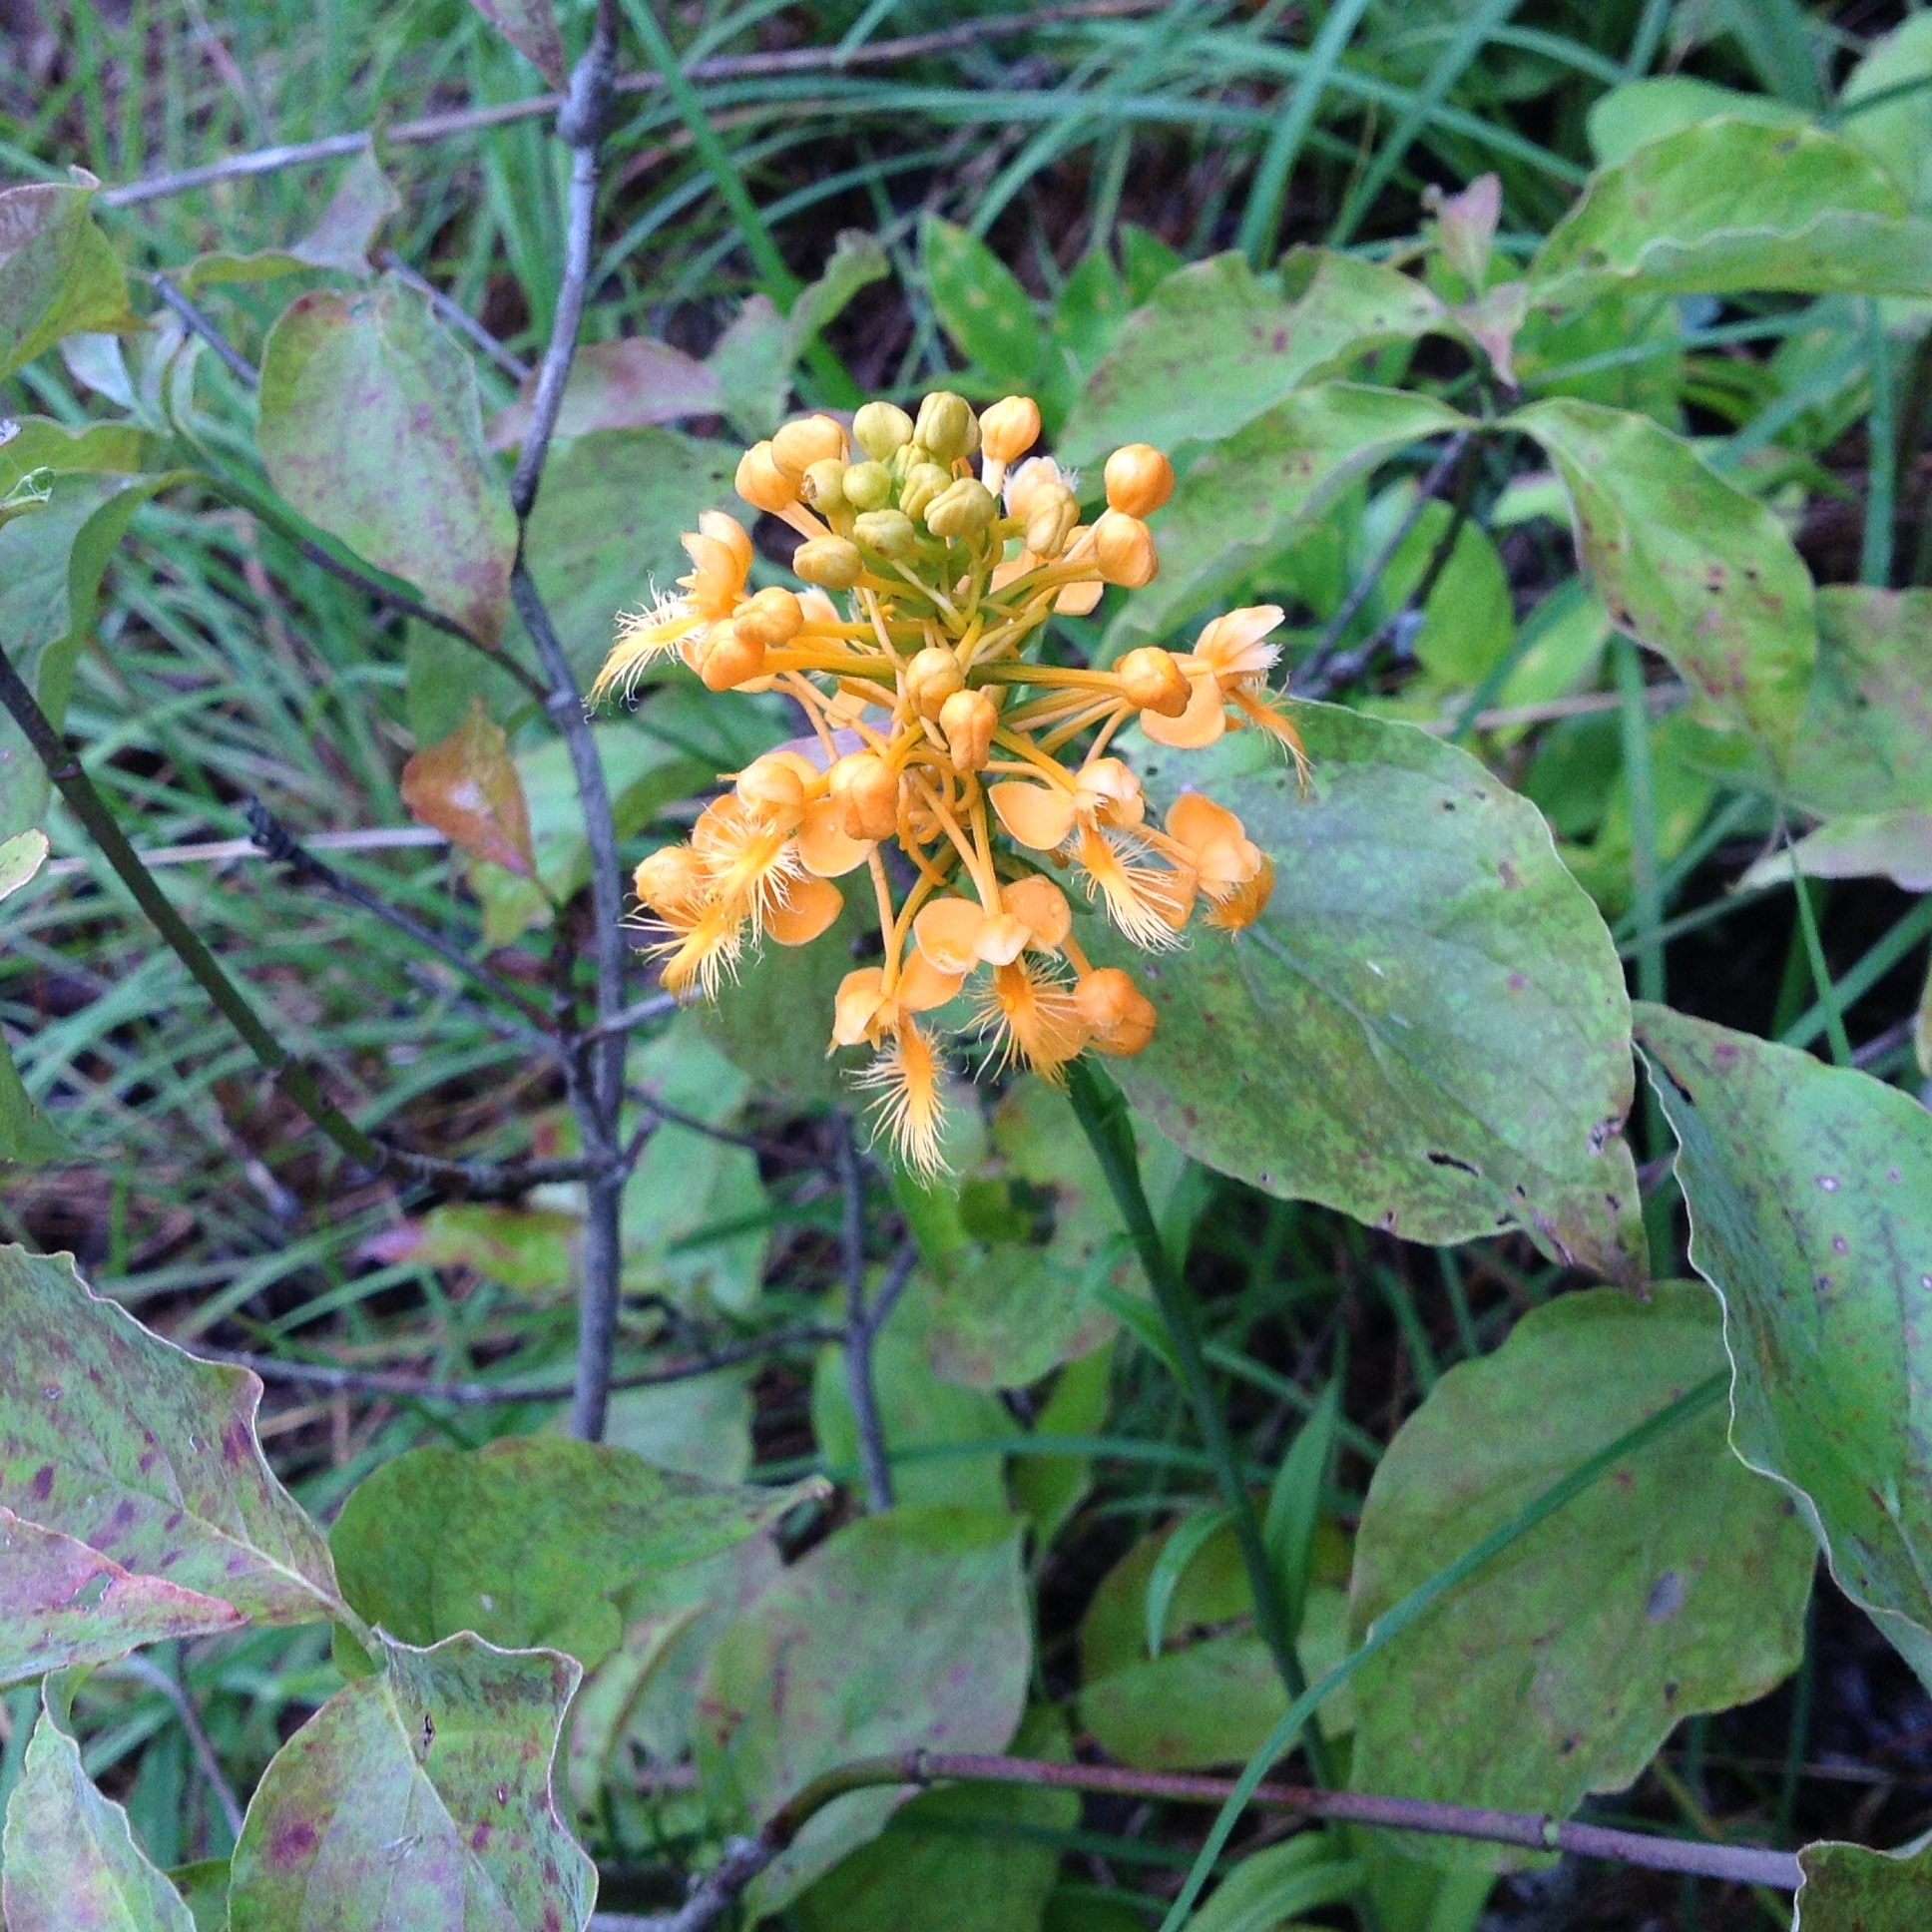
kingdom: Plantae
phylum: Tracheophyta
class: Liliopsida
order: Asparagales
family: Orchidaceae
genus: Platanthera
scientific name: Platanthera ciliaris
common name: Yellow fringed orchid
